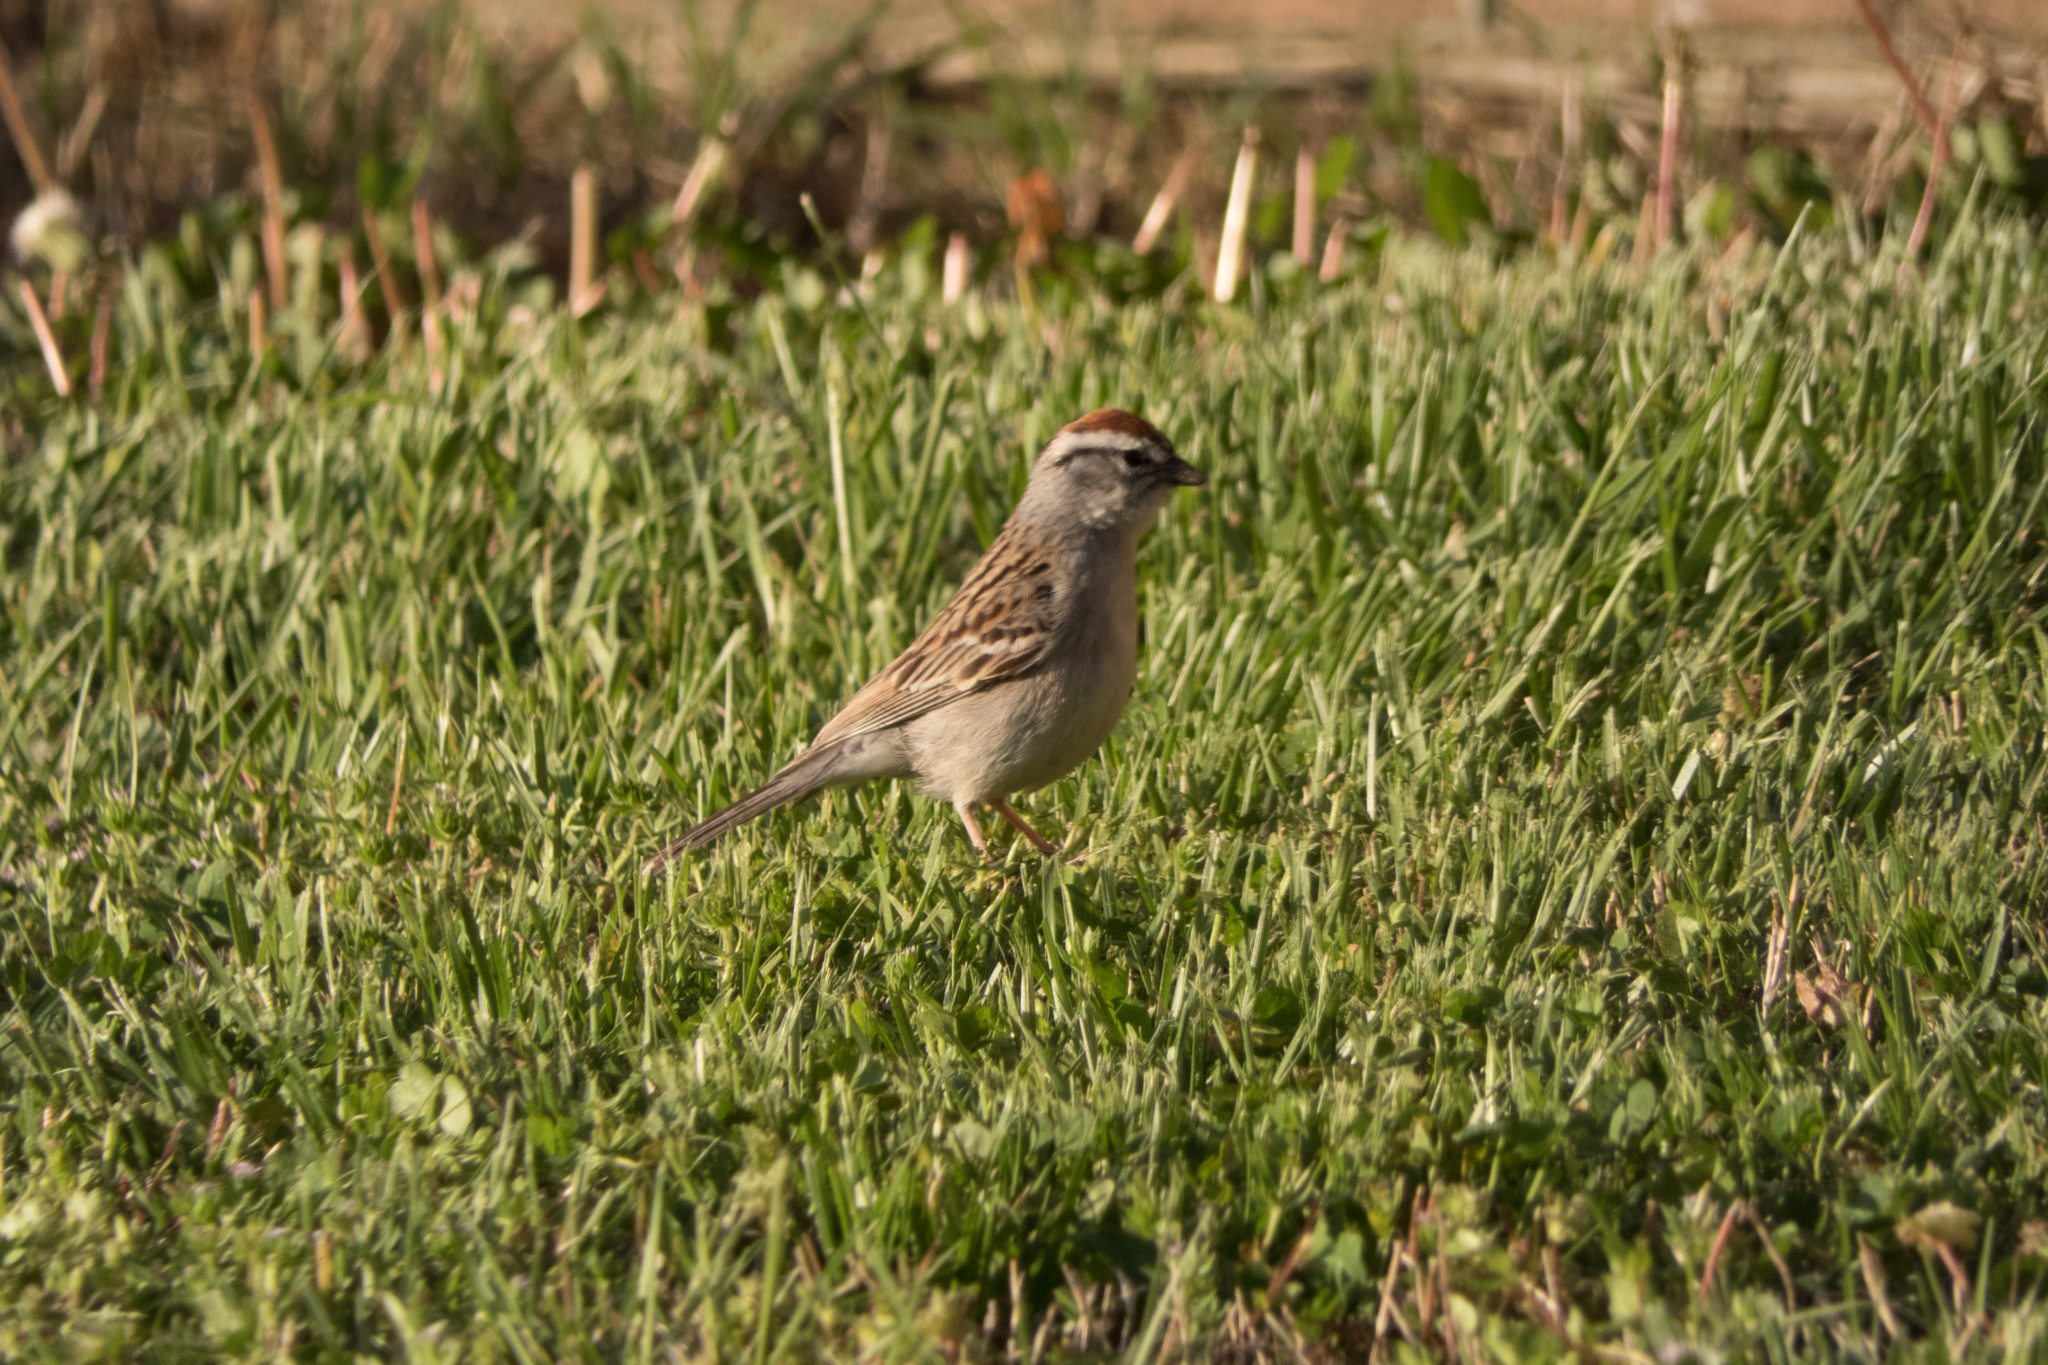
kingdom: Animalia
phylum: Chordata
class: Aves
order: Passeriformes
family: Passerellidae
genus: Spizella
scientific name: Spizella passerina
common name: Chipping sparrow
